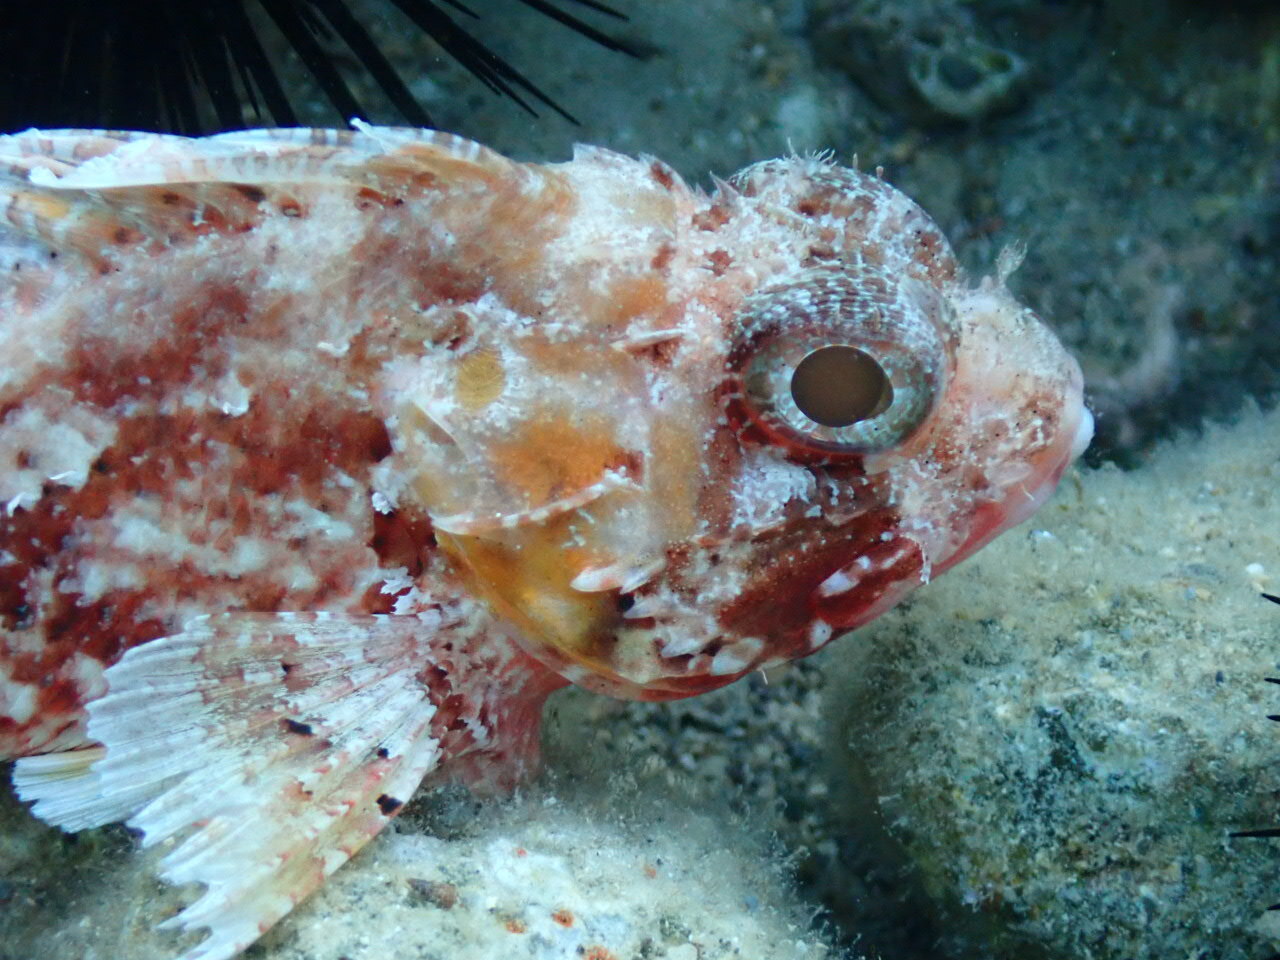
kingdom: Animalia
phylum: Chordata
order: Scorpaeniformes
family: Scorpaenidae
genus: Scorpaena
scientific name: Scorpaena notata
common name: Small red scorpionfish
